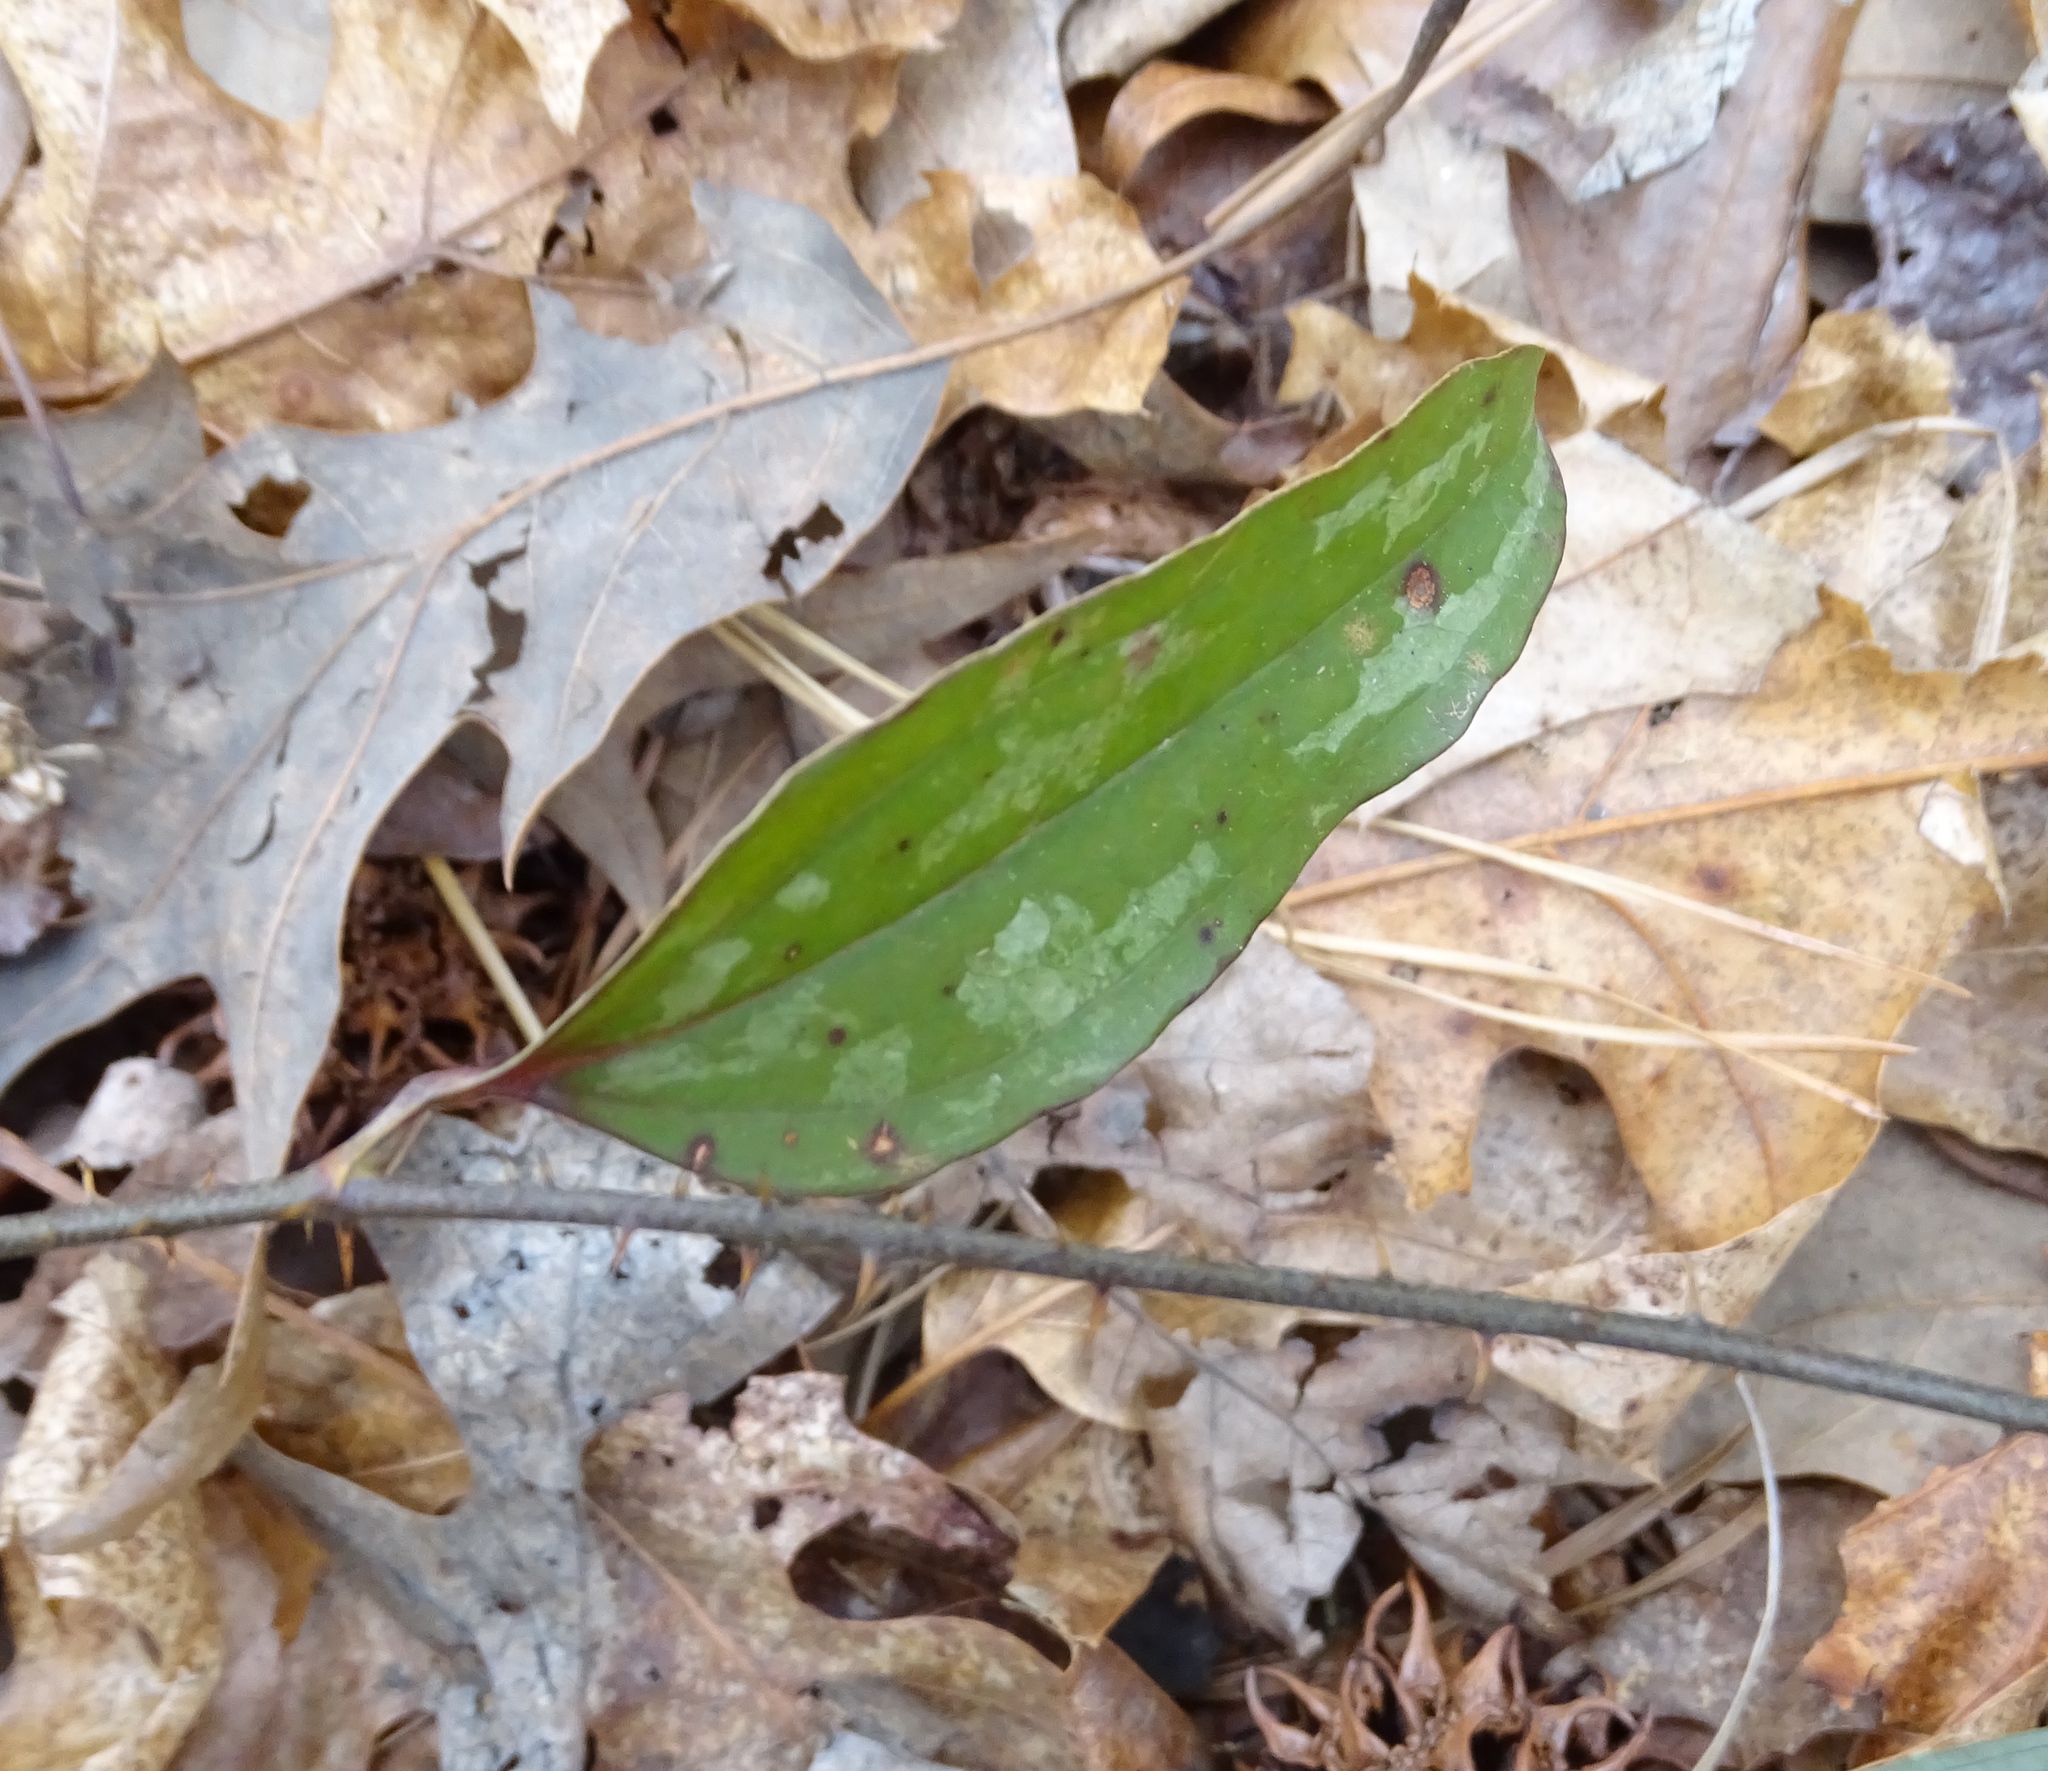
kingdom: Plantae
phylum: Tracheophyta
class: Liliopsida
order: Liliales
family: Smilacaceae
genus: Smilax
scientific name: Smilax glauca
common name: Cat greenbrier
